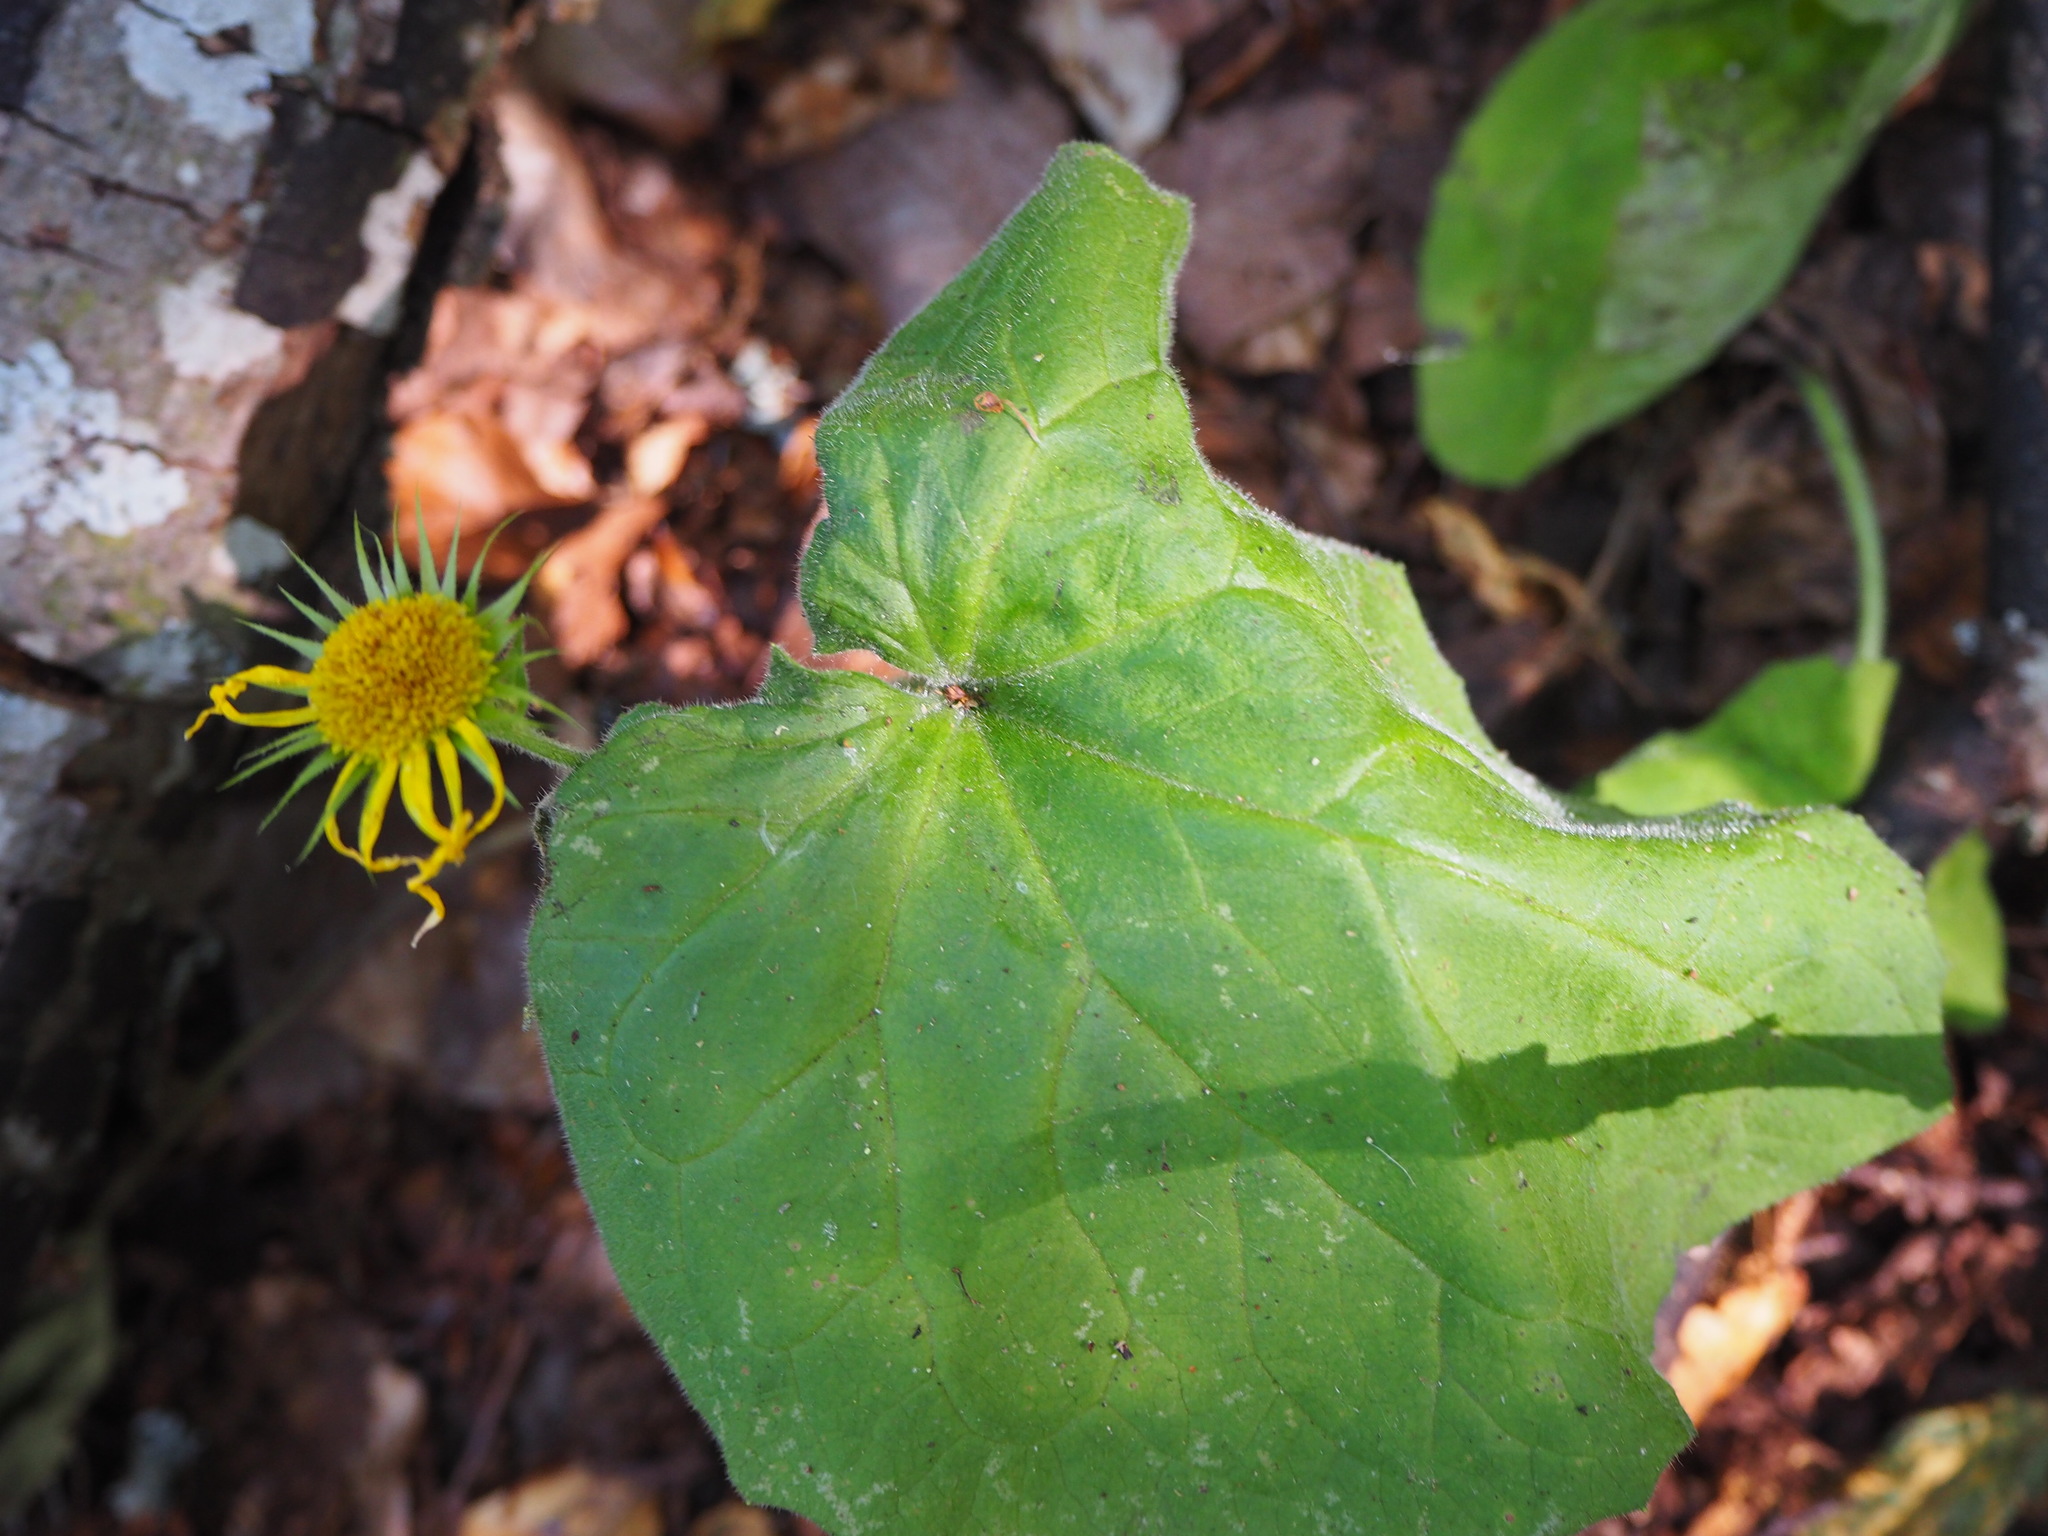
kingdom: Plantae
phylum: Tracheophyta
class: Magnoliopsida
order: Asterales
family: Asteraceae
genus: Tussilago
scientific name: Tussilago farfara
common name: Coltsfoot
